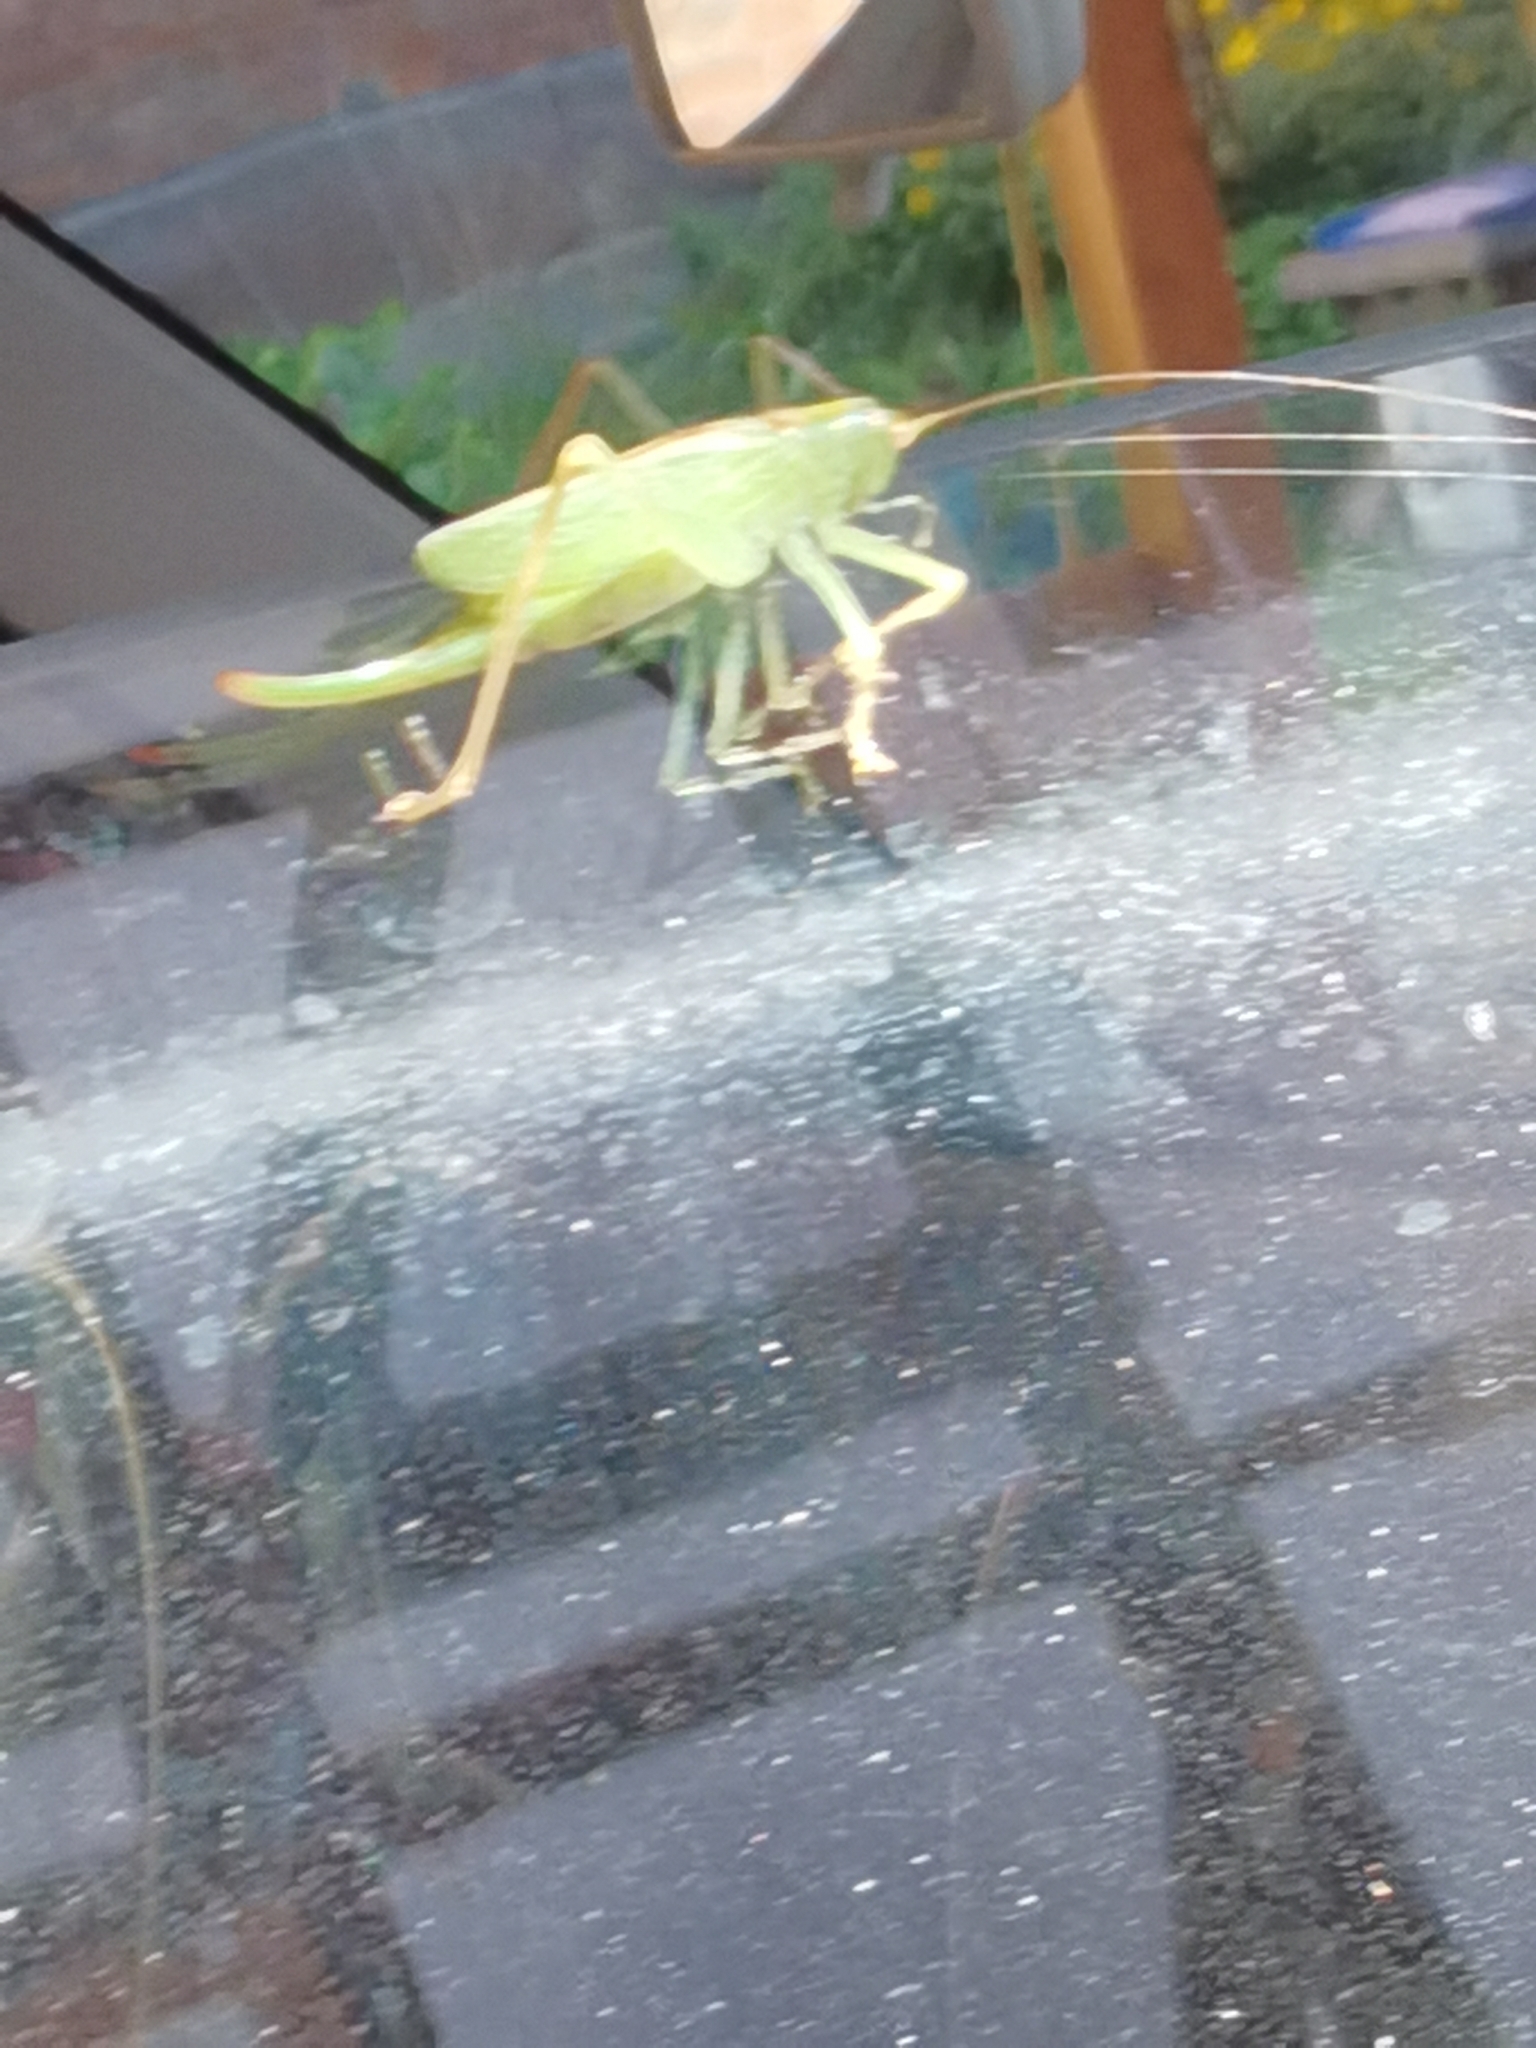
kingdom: Animalia
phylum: Arthropoda
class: Insecta
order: Orthoptera
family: Tettigoniidae
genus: Meconema
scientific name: Meconema thalassinum
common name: Oak bush-cricket
